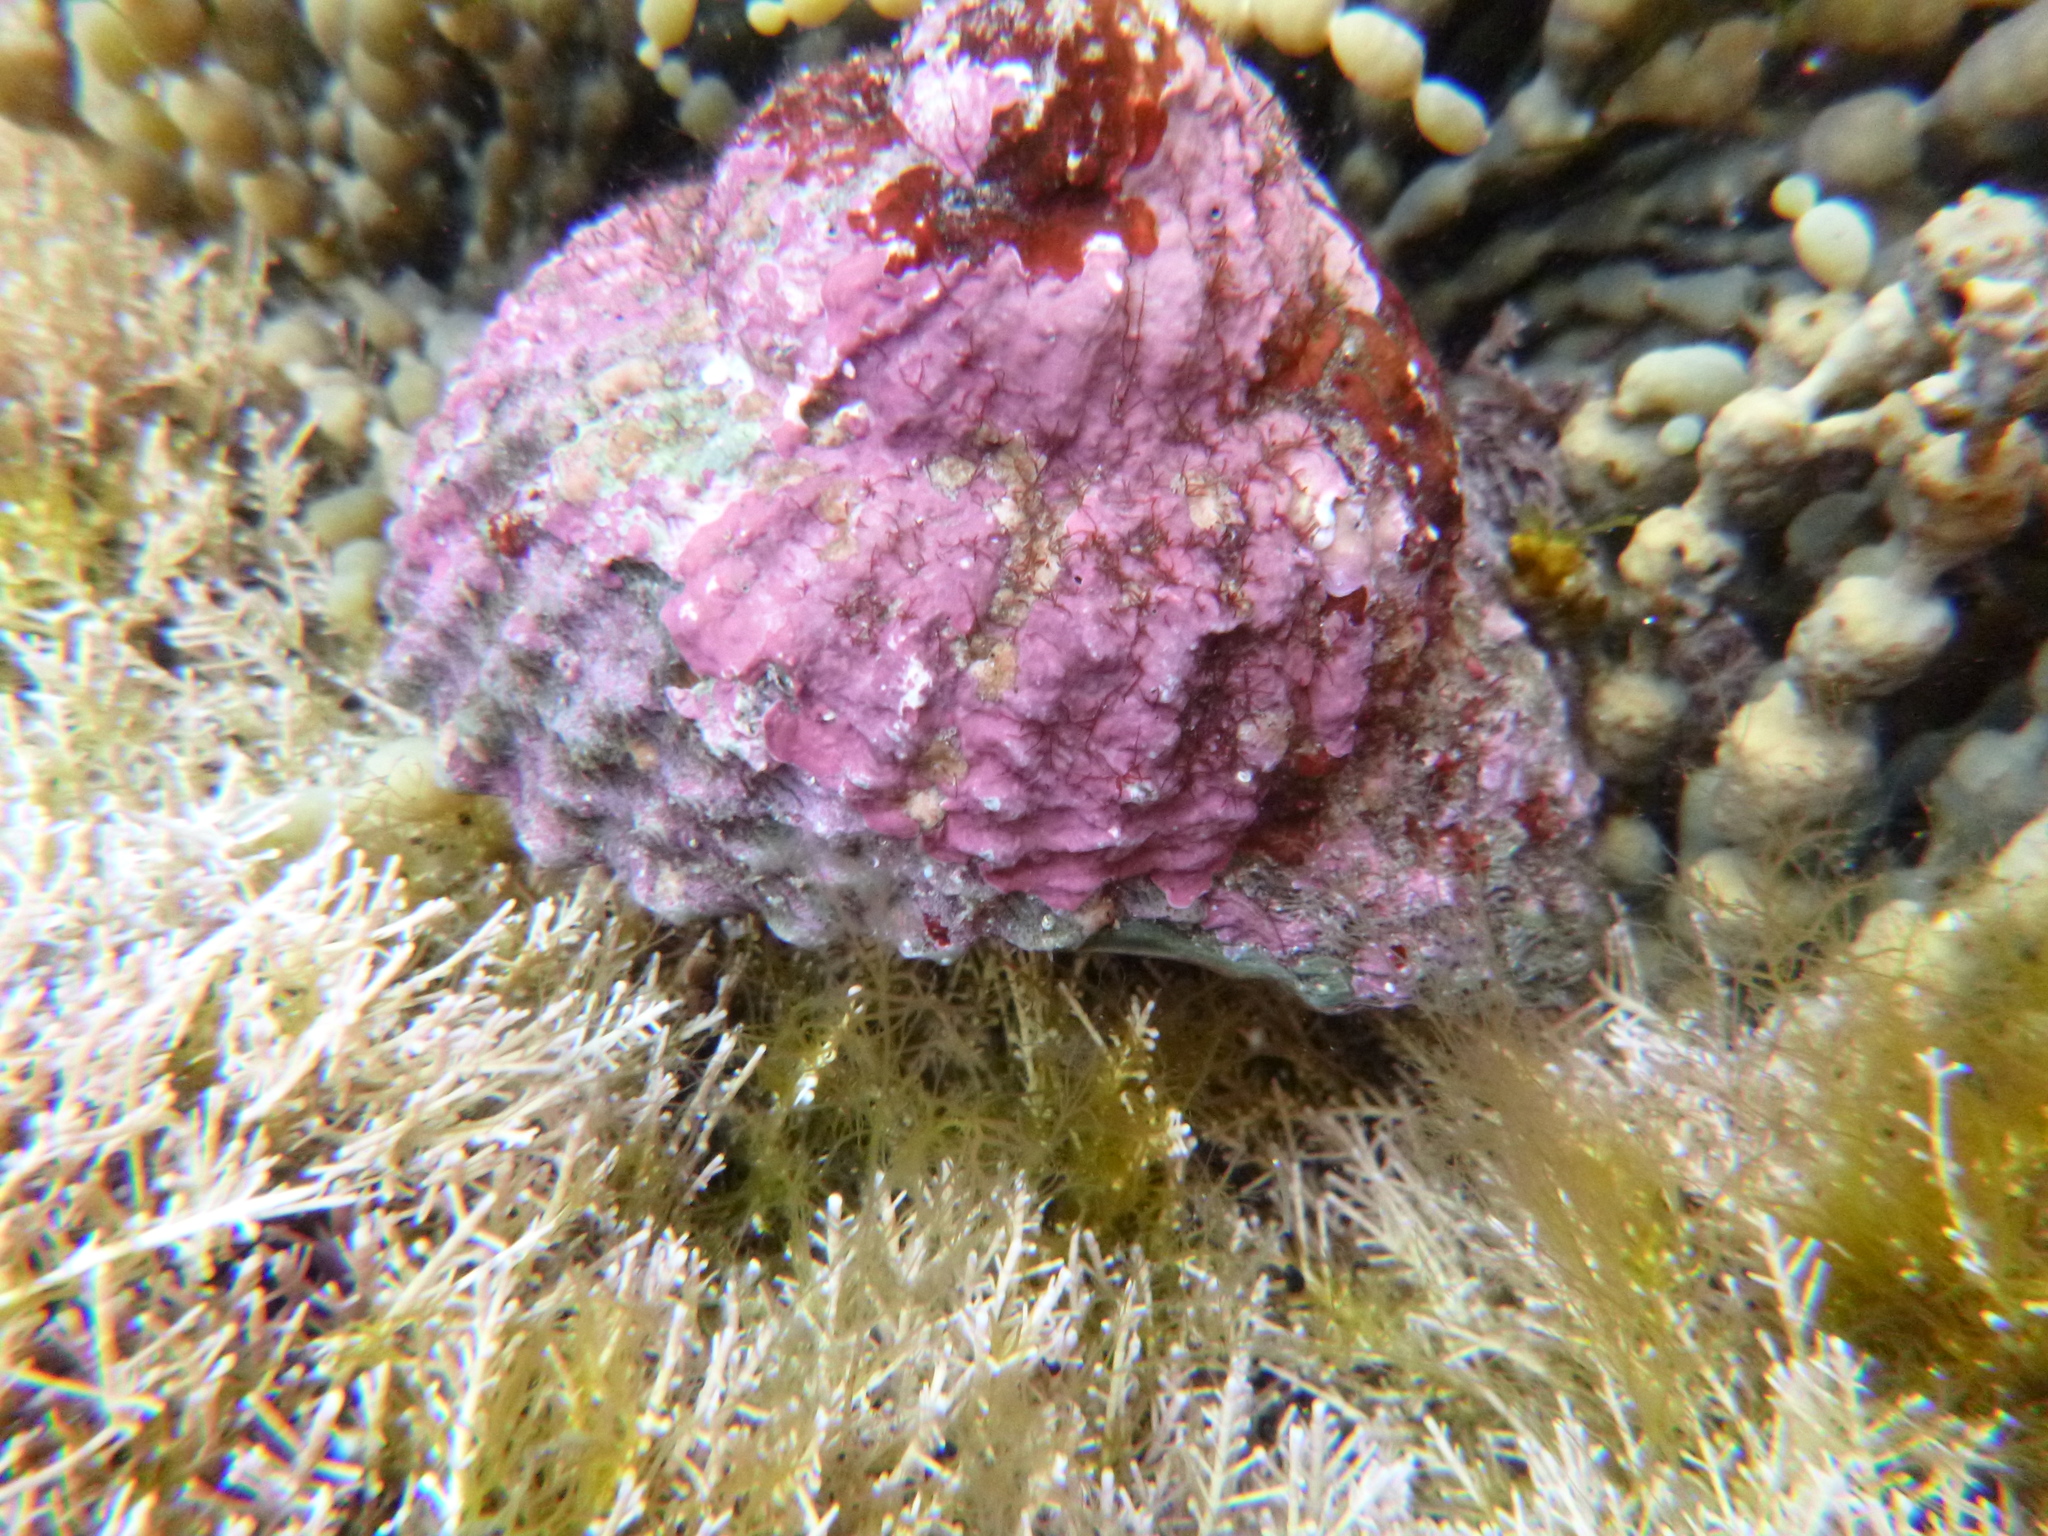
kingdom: Animalia
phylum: Mollusca
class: Gastropoda
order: Trochida
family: Turbinidae
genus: Cookia
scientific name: Cookia sulcata
